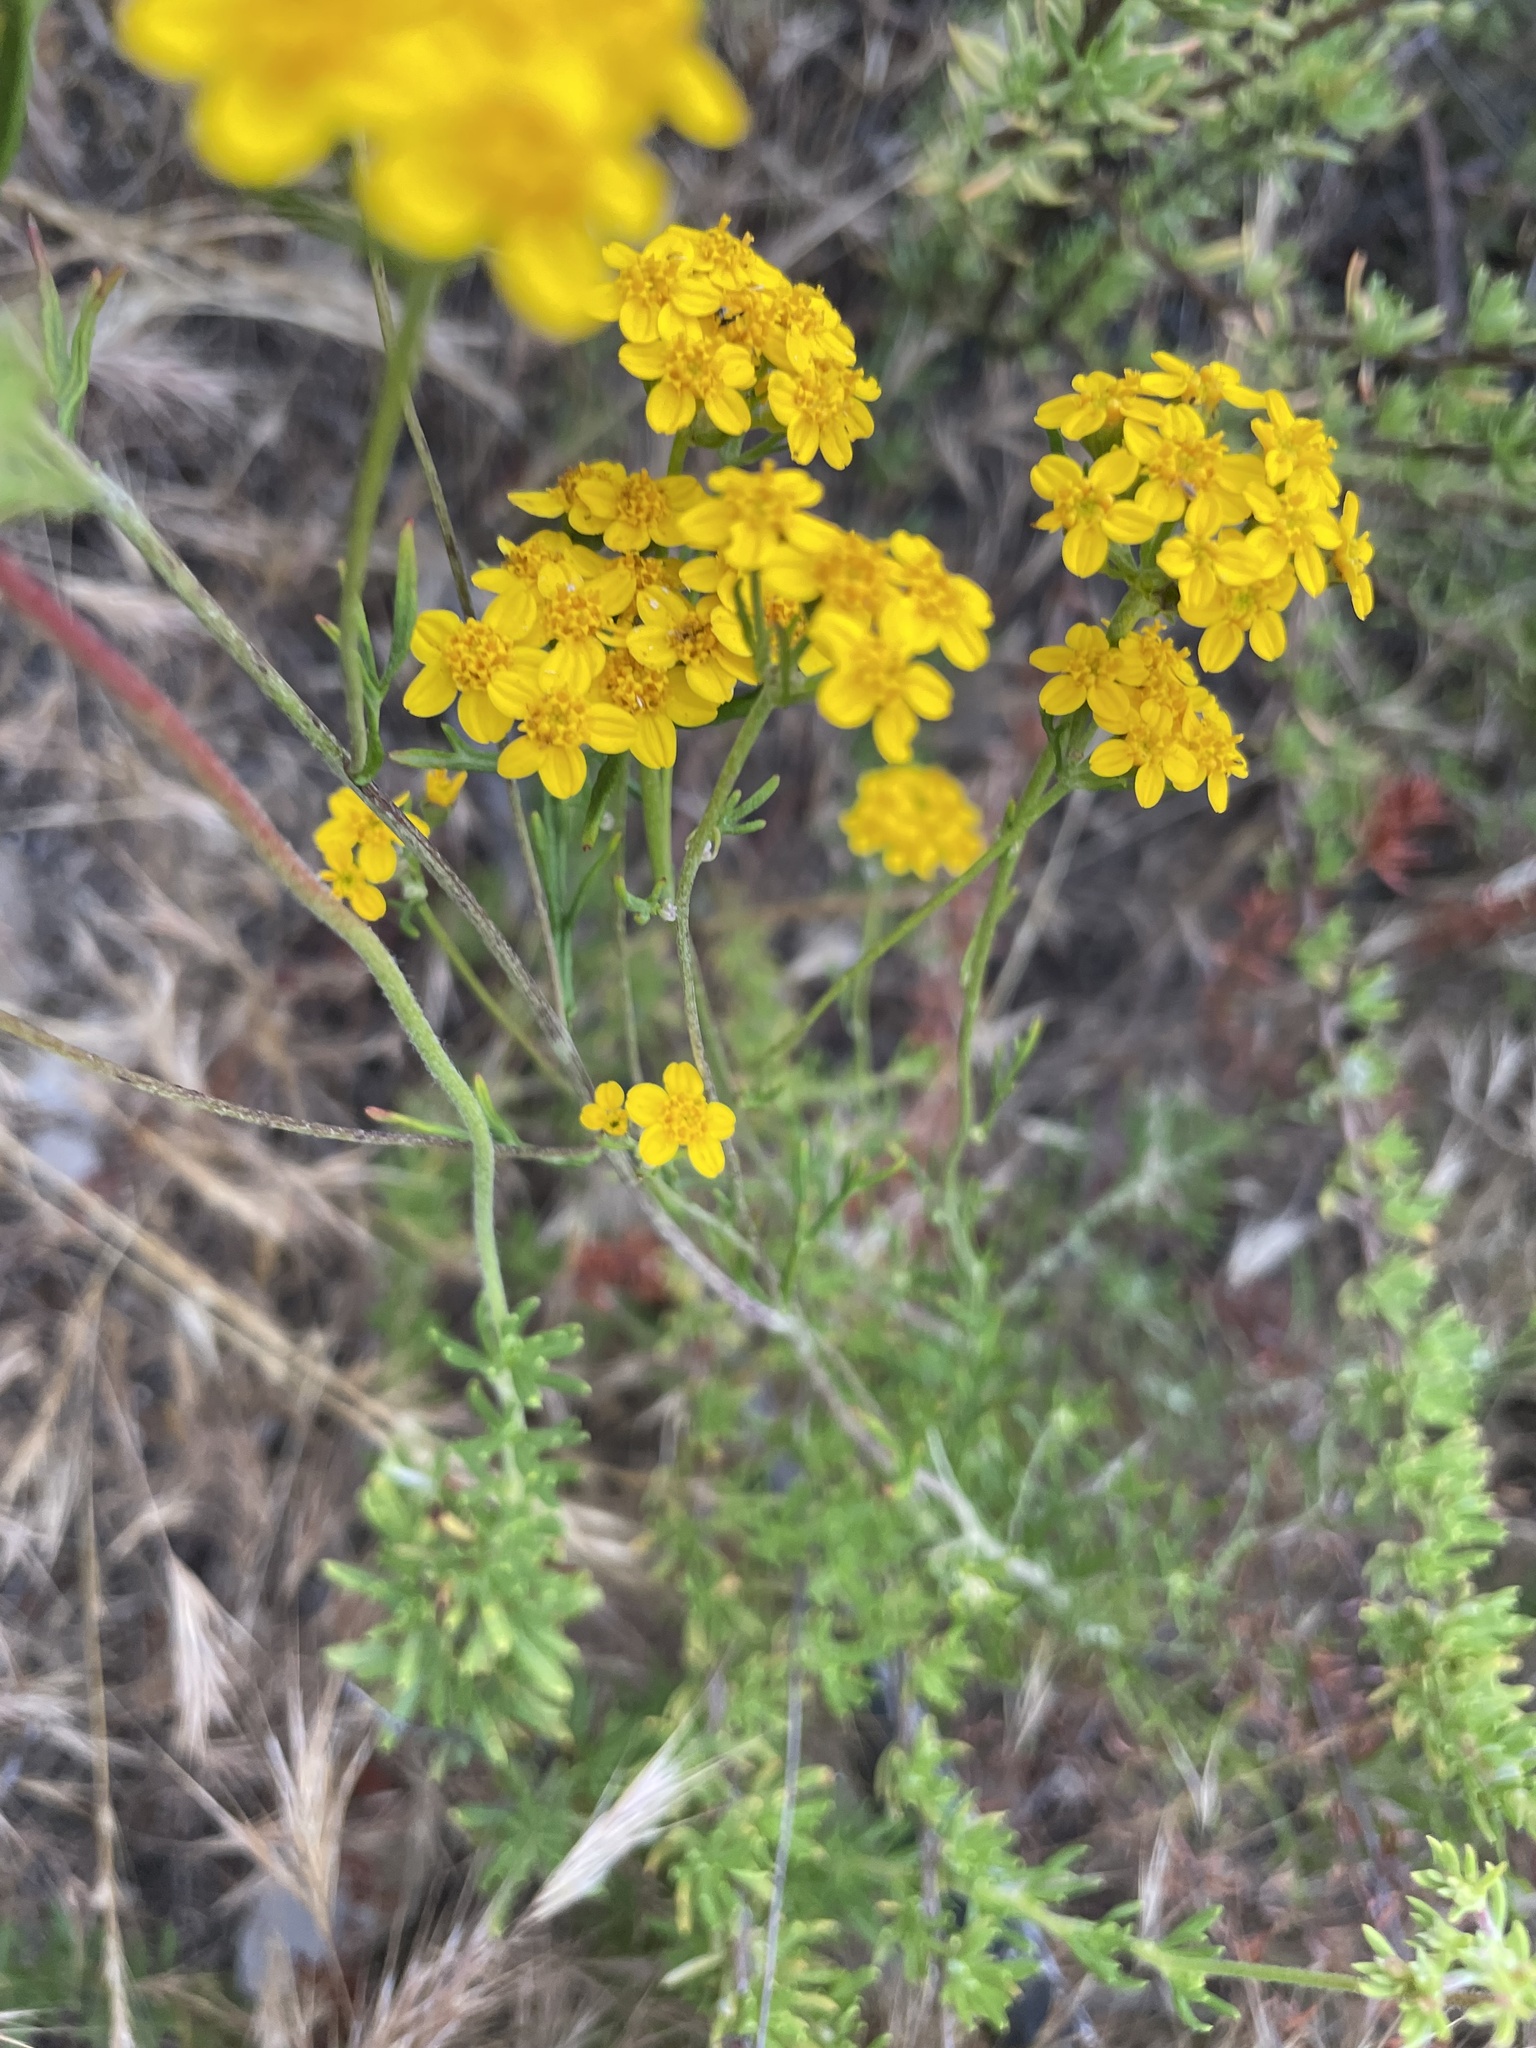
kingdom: Plantae
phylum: Tracheophyta
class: Magnoliopsida
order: Asterales
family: Asteraceae
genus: Eriophyllum
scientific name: Eriophyllum confertiflorum
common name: Golden-yarrow
